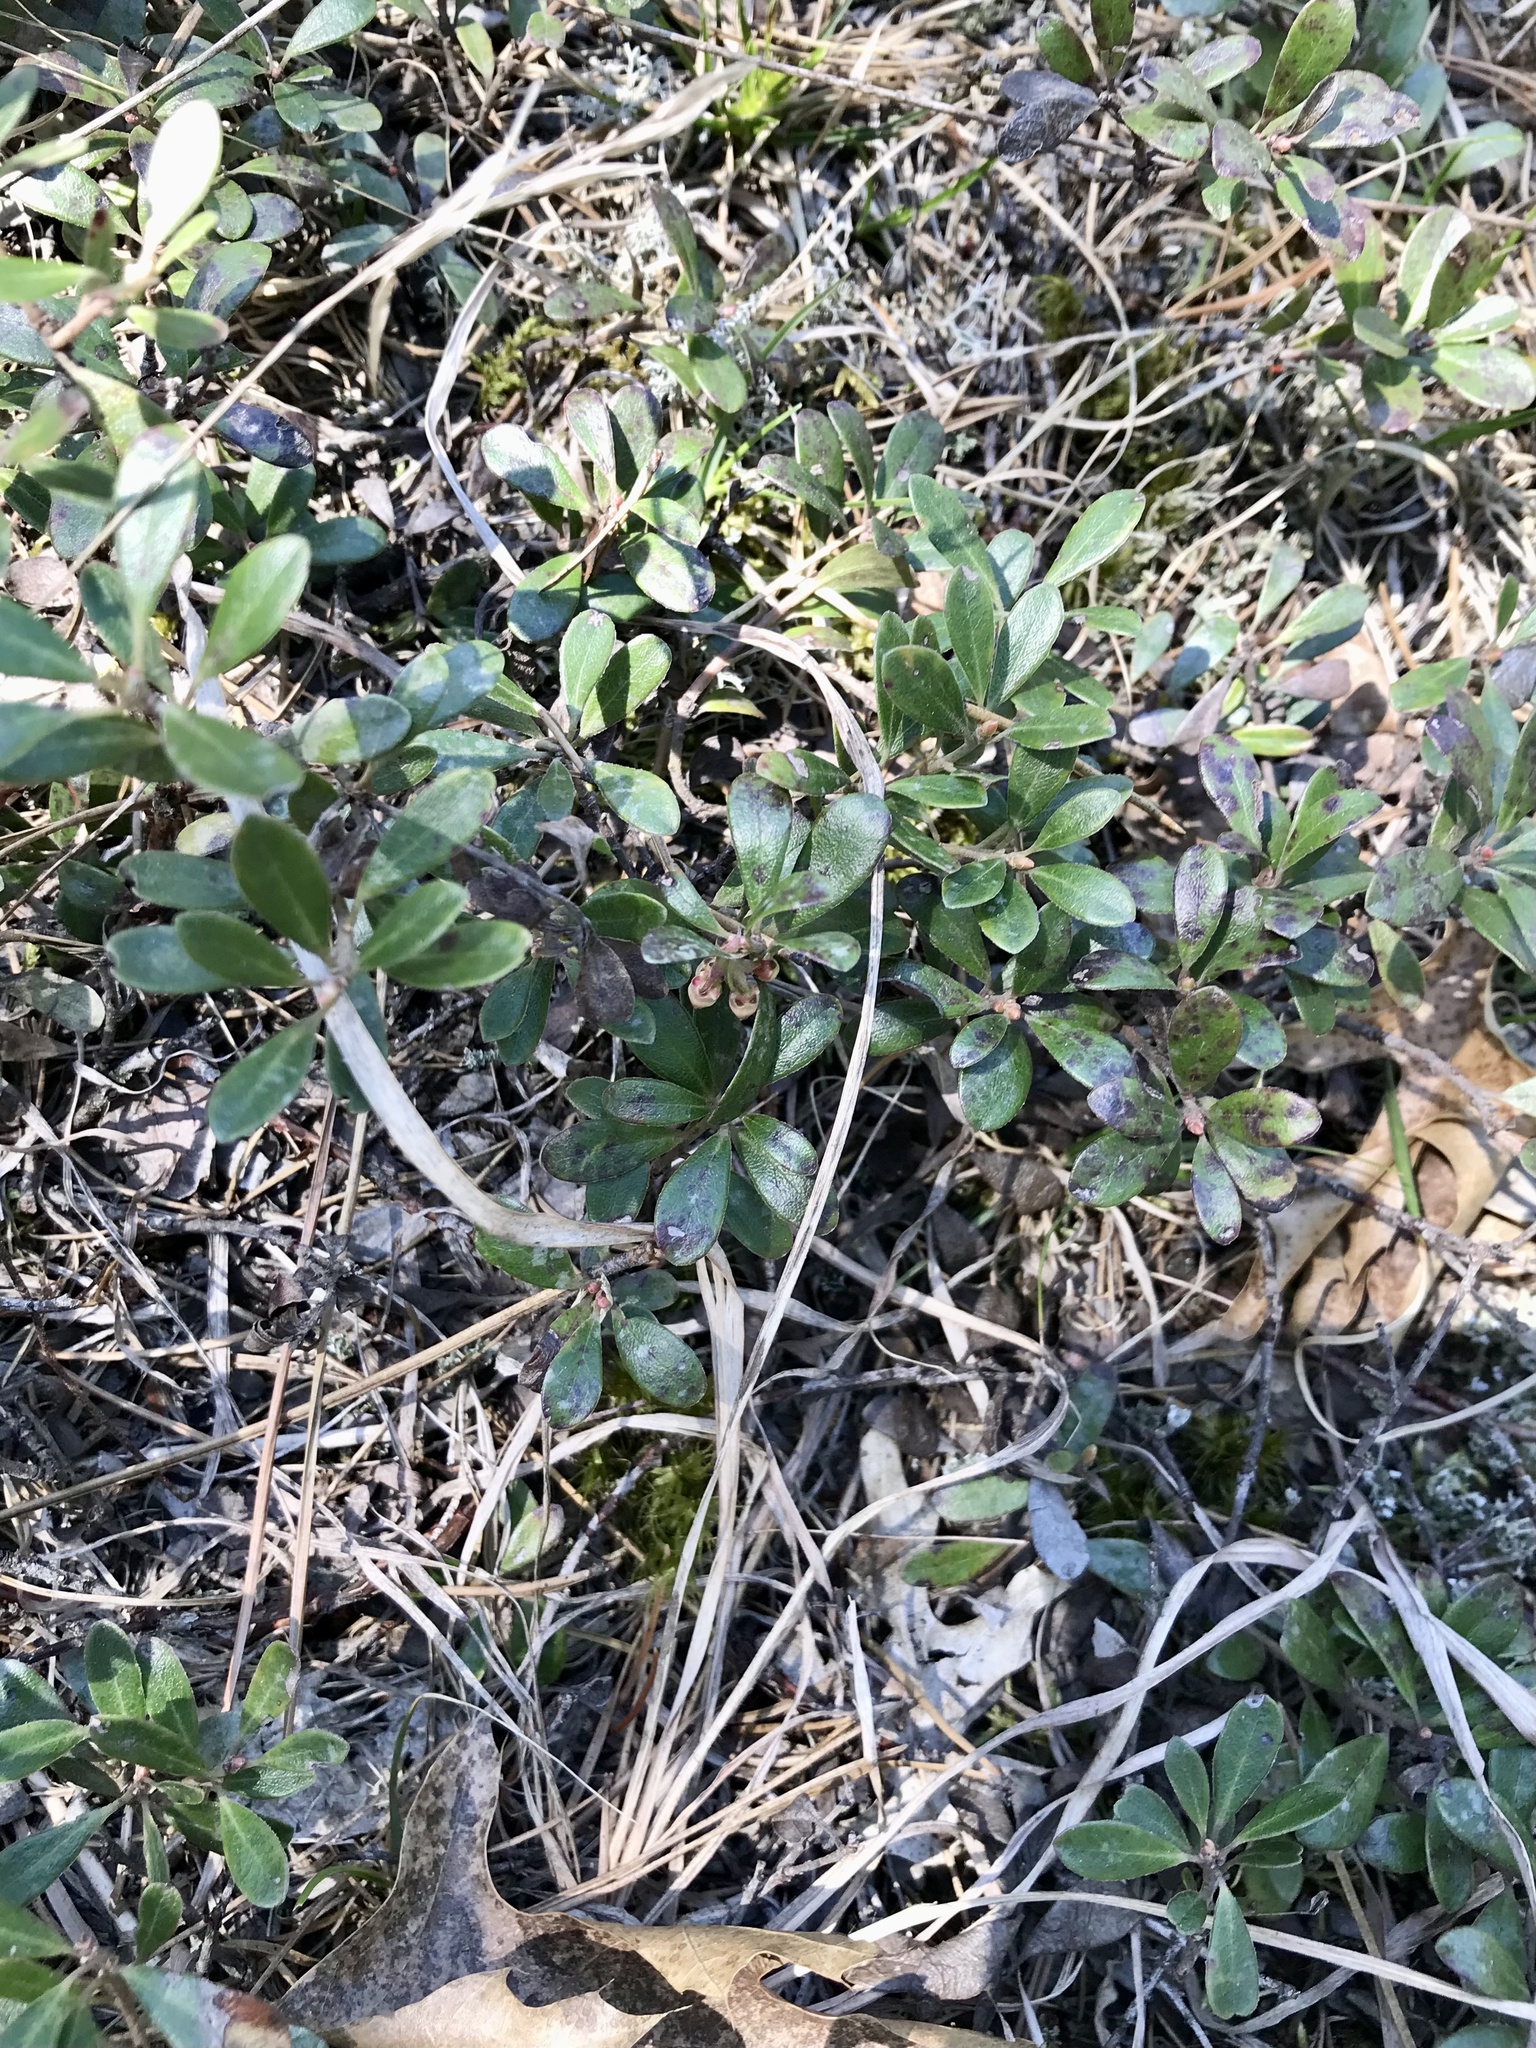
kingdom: Plantae
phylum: Tracheophyta
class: Magnoliopsida
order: Ericales
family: Ericaceae
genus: Arctostaphylos
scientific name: Arctostaphylos uva-ursi
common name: Bearberry
